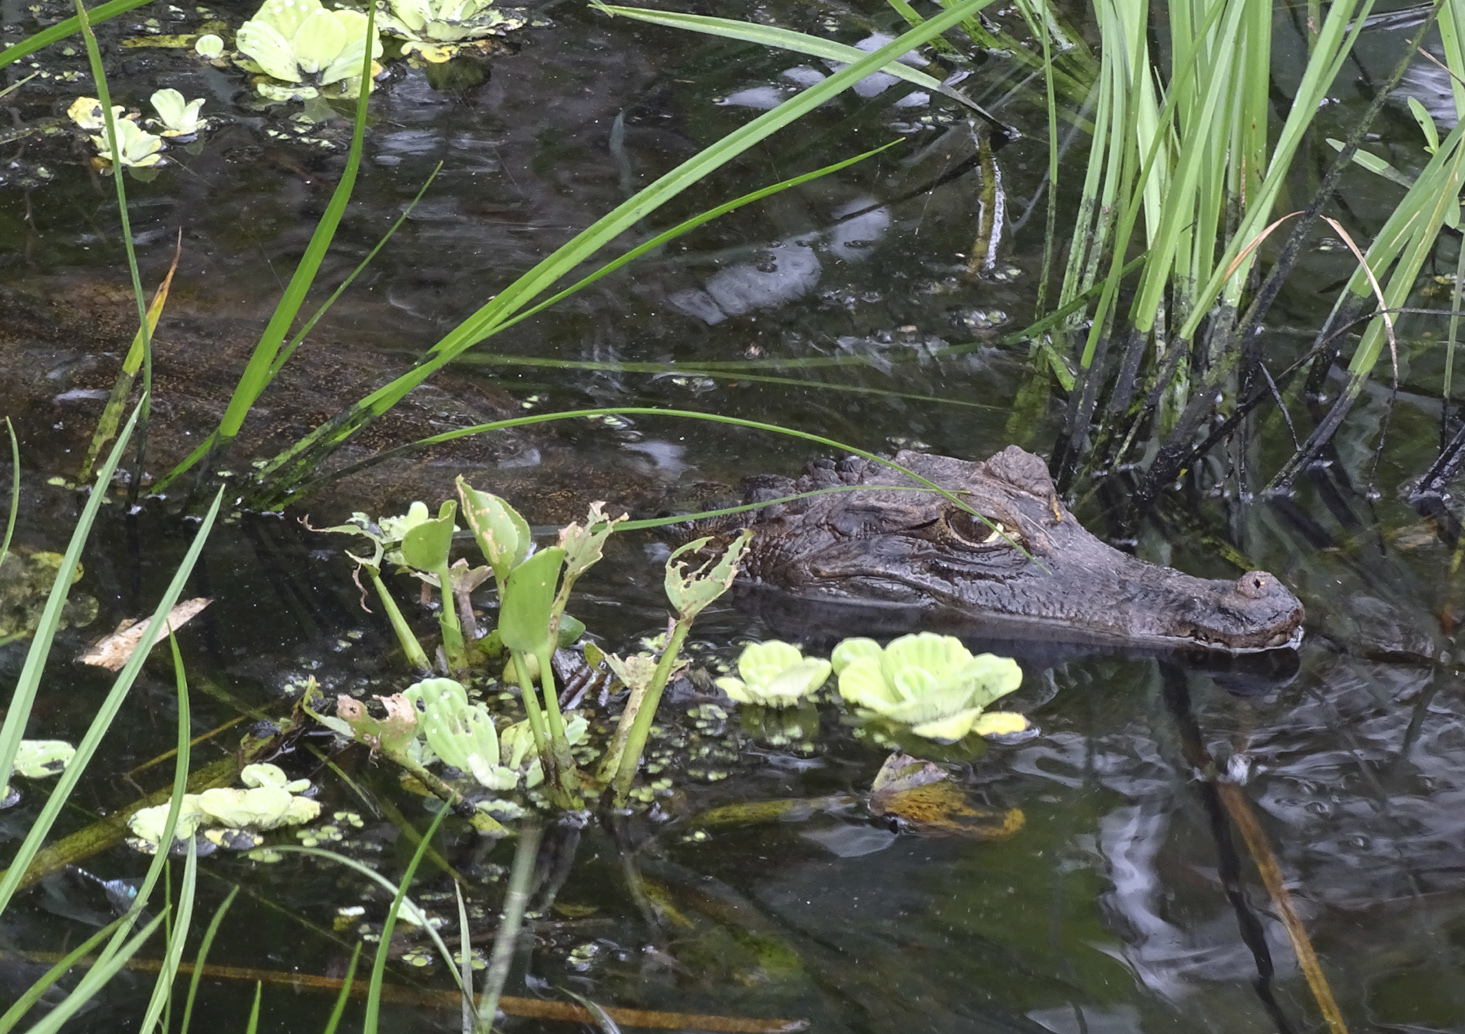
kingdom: Animalia
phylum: Chordata
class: Crocodylia
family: Alligatoridae
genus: Caiman
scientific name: Caiman crocodilus
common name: Common caiman
